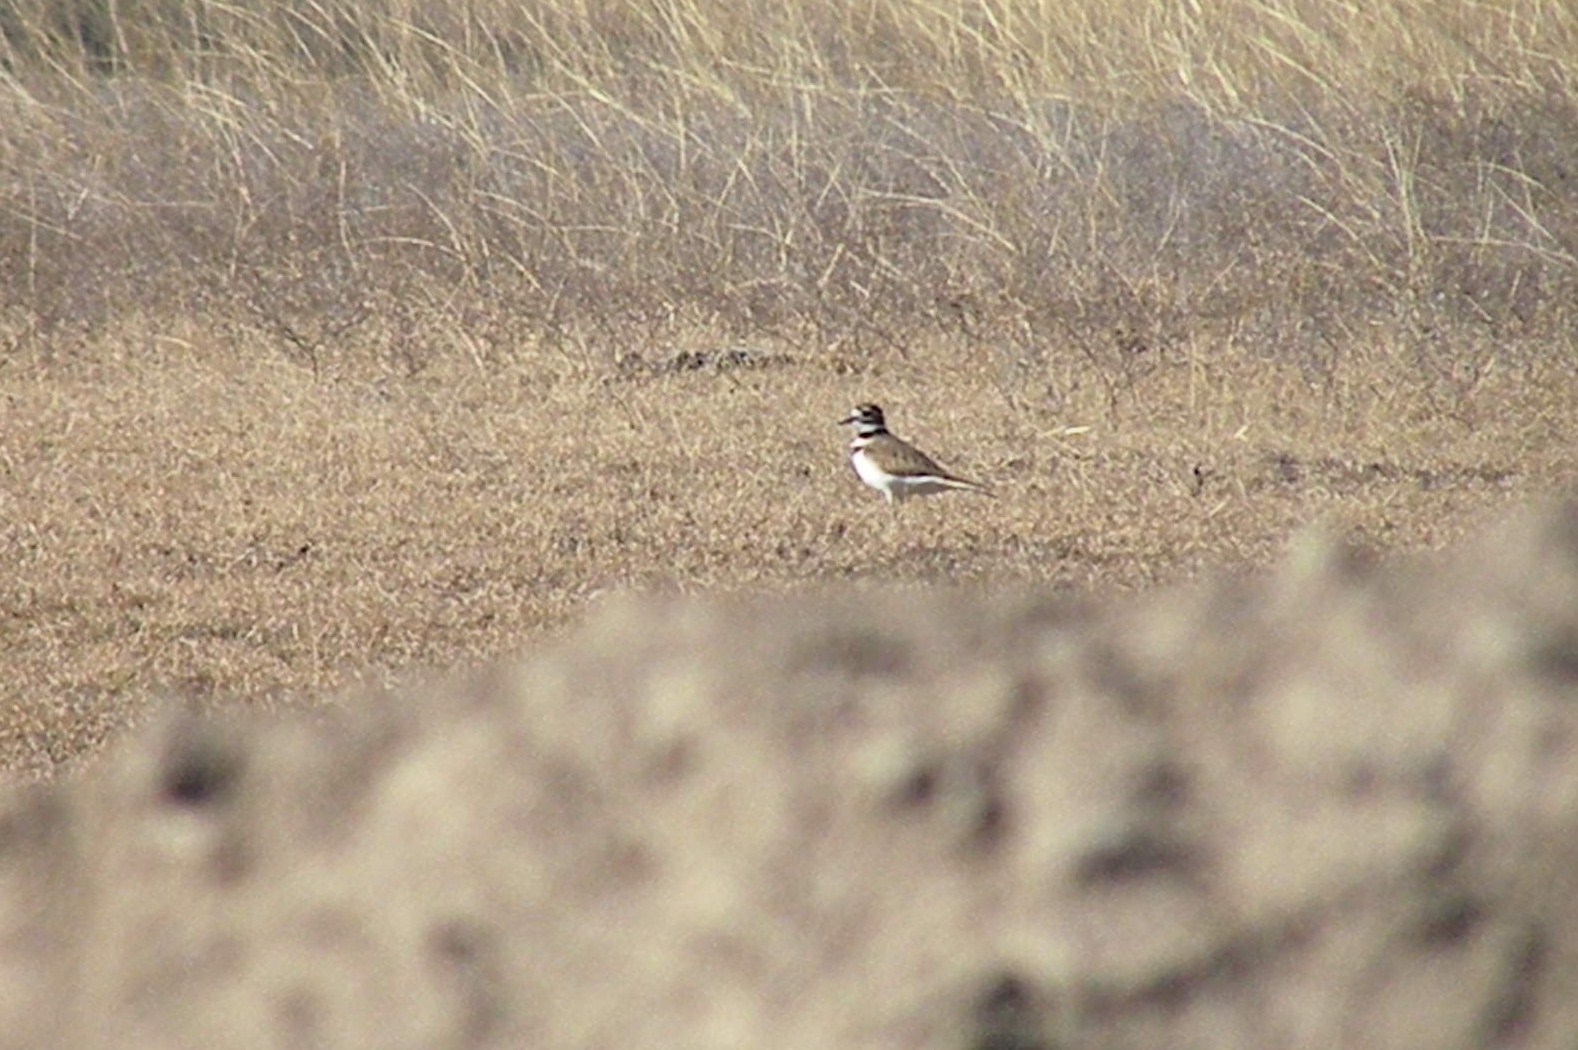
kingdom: Animalia
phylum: Chordata
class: Aves
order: Charadriiformes
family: Charadriidae
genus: Charadrius
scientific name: Charadrius vociferus
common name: Killdeer
